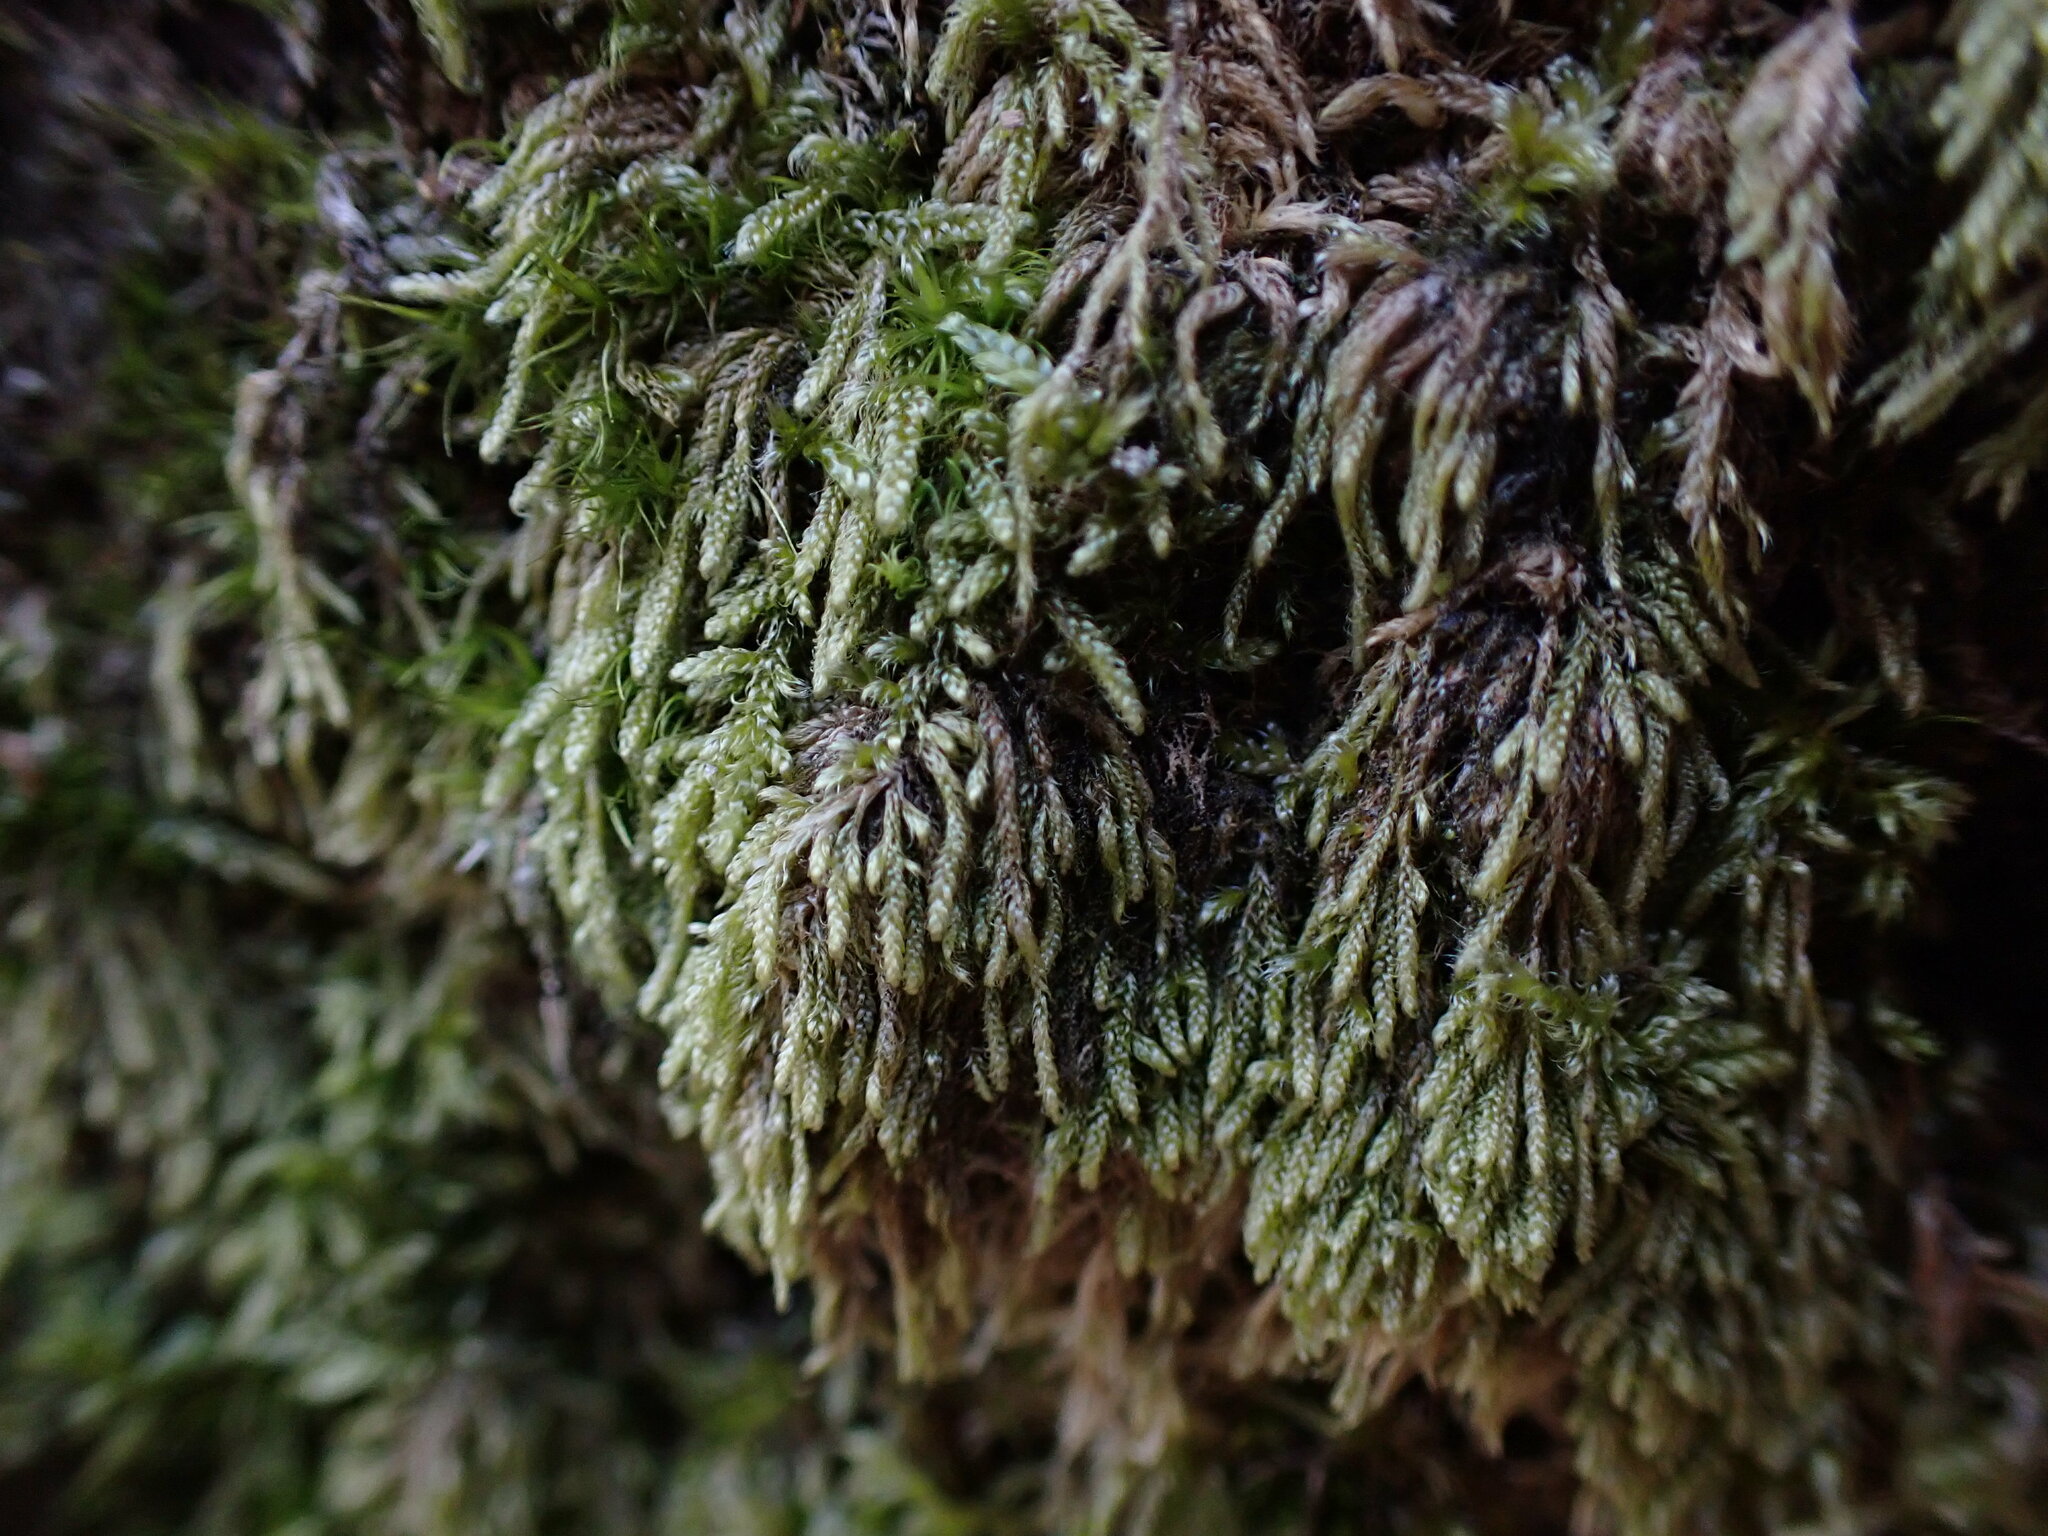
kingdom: Plantae
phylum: Bryophyta
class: Bryopsida
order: Hypnales
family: Pylaisiadelphaceae
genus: Trochophyllohypnum
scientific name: Trochophyllohypnum circinale
